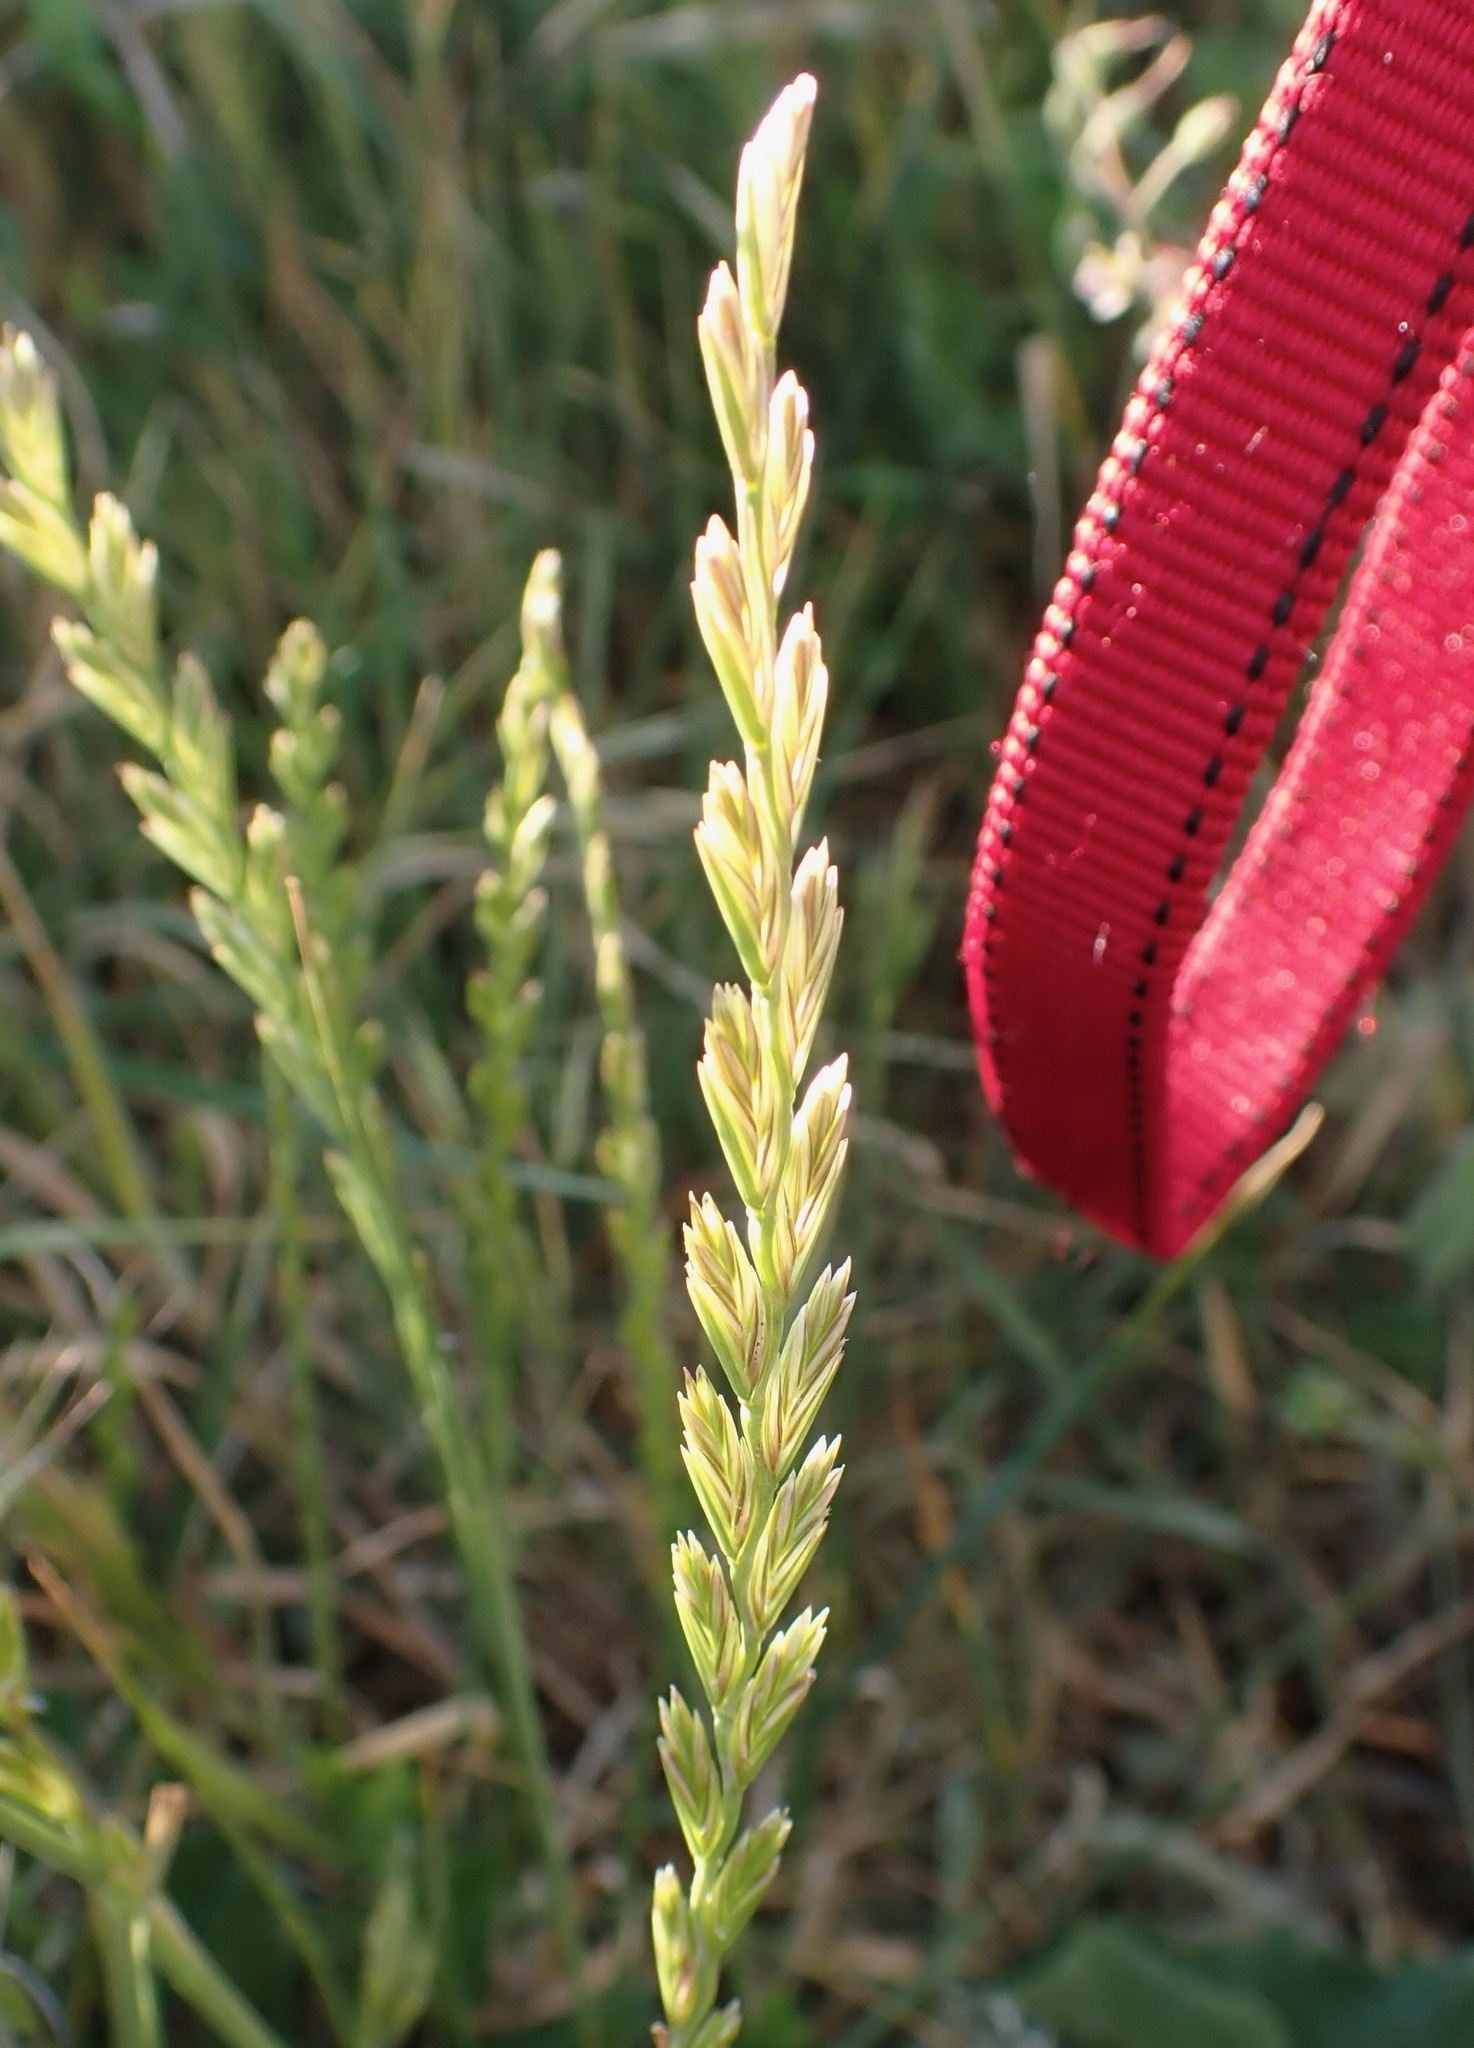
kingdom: Plantae
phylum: Tracheophyta
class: Liliopsida
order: Poales
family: Poaceae
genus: Lolium
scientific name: Lolium perenne
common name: Perennial ryegrass
